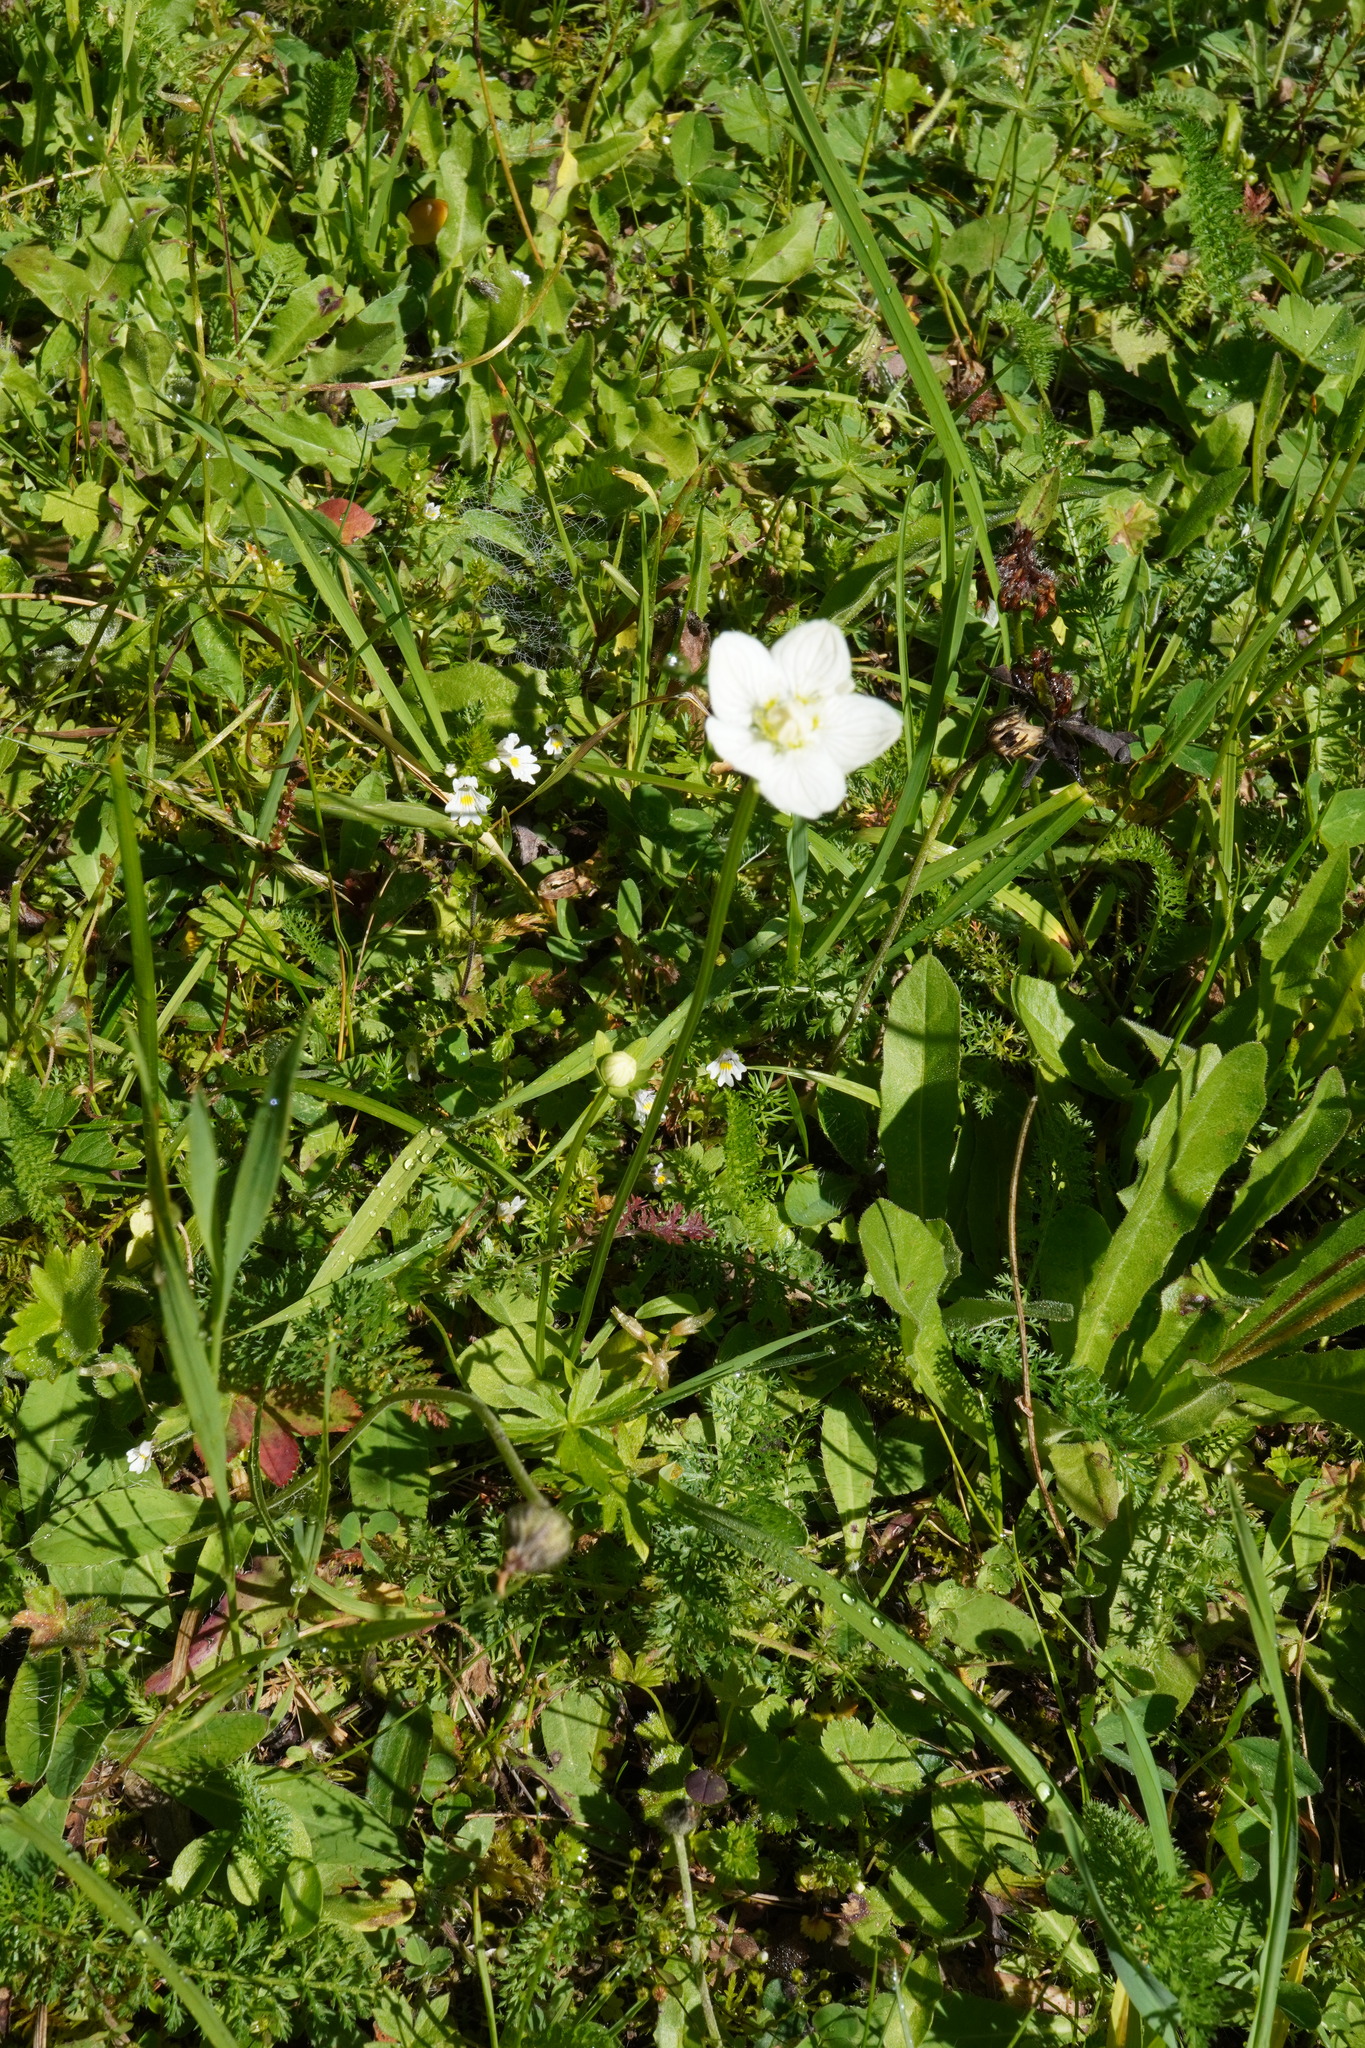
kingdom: Plantae
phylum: Tracheophyta
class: Magnoliopsida
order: Celastrales
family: Parnassiaceae
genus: Parnassia
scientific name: Parnassia palustris
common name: Grass-of-parnassus
